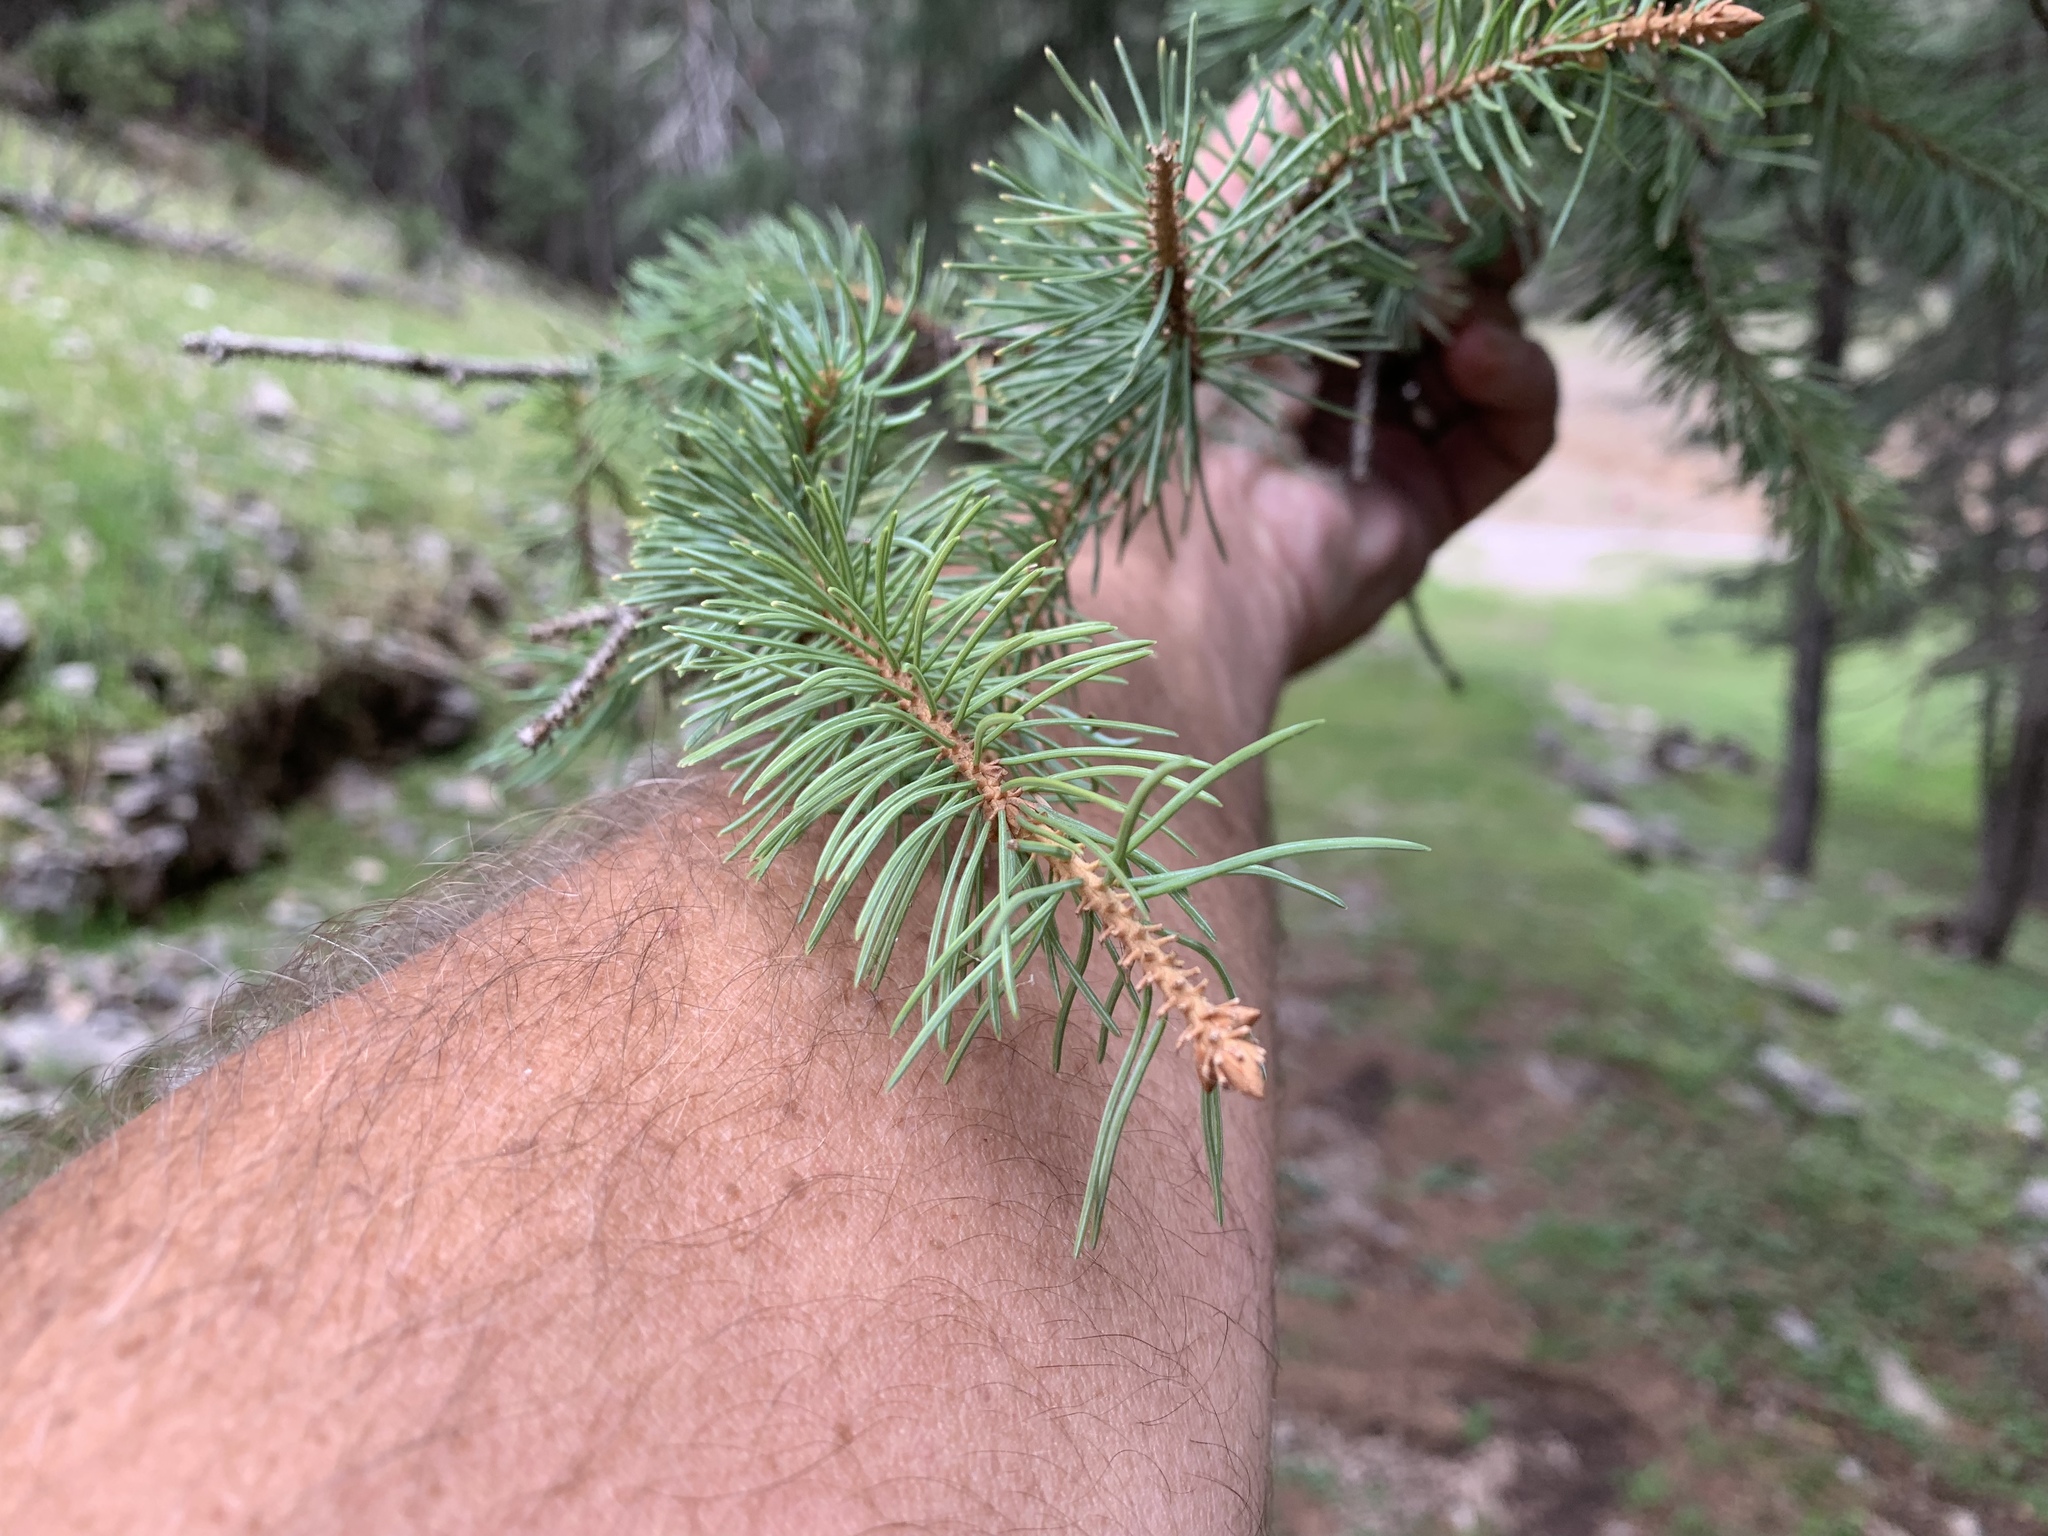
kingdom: Plantae
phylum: Tracheophyta
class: Pinopsida
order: Pinales
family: Pinaceae
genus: Picea
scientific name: Picea engelmannii
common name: Engelmann spruce
